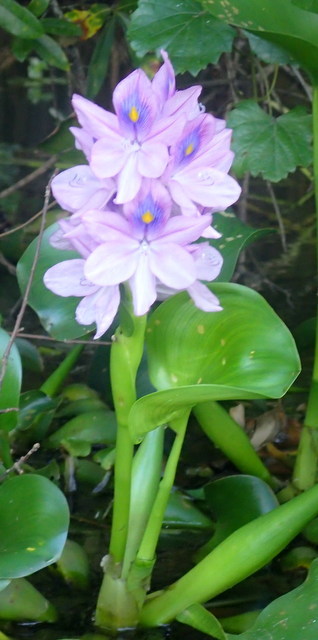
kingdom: Plantae
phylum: Tracheophyta
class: Liliopsida
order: Commelinales
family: Pontederiaceae
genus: Pontederia
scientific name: Pontederia crassipes
